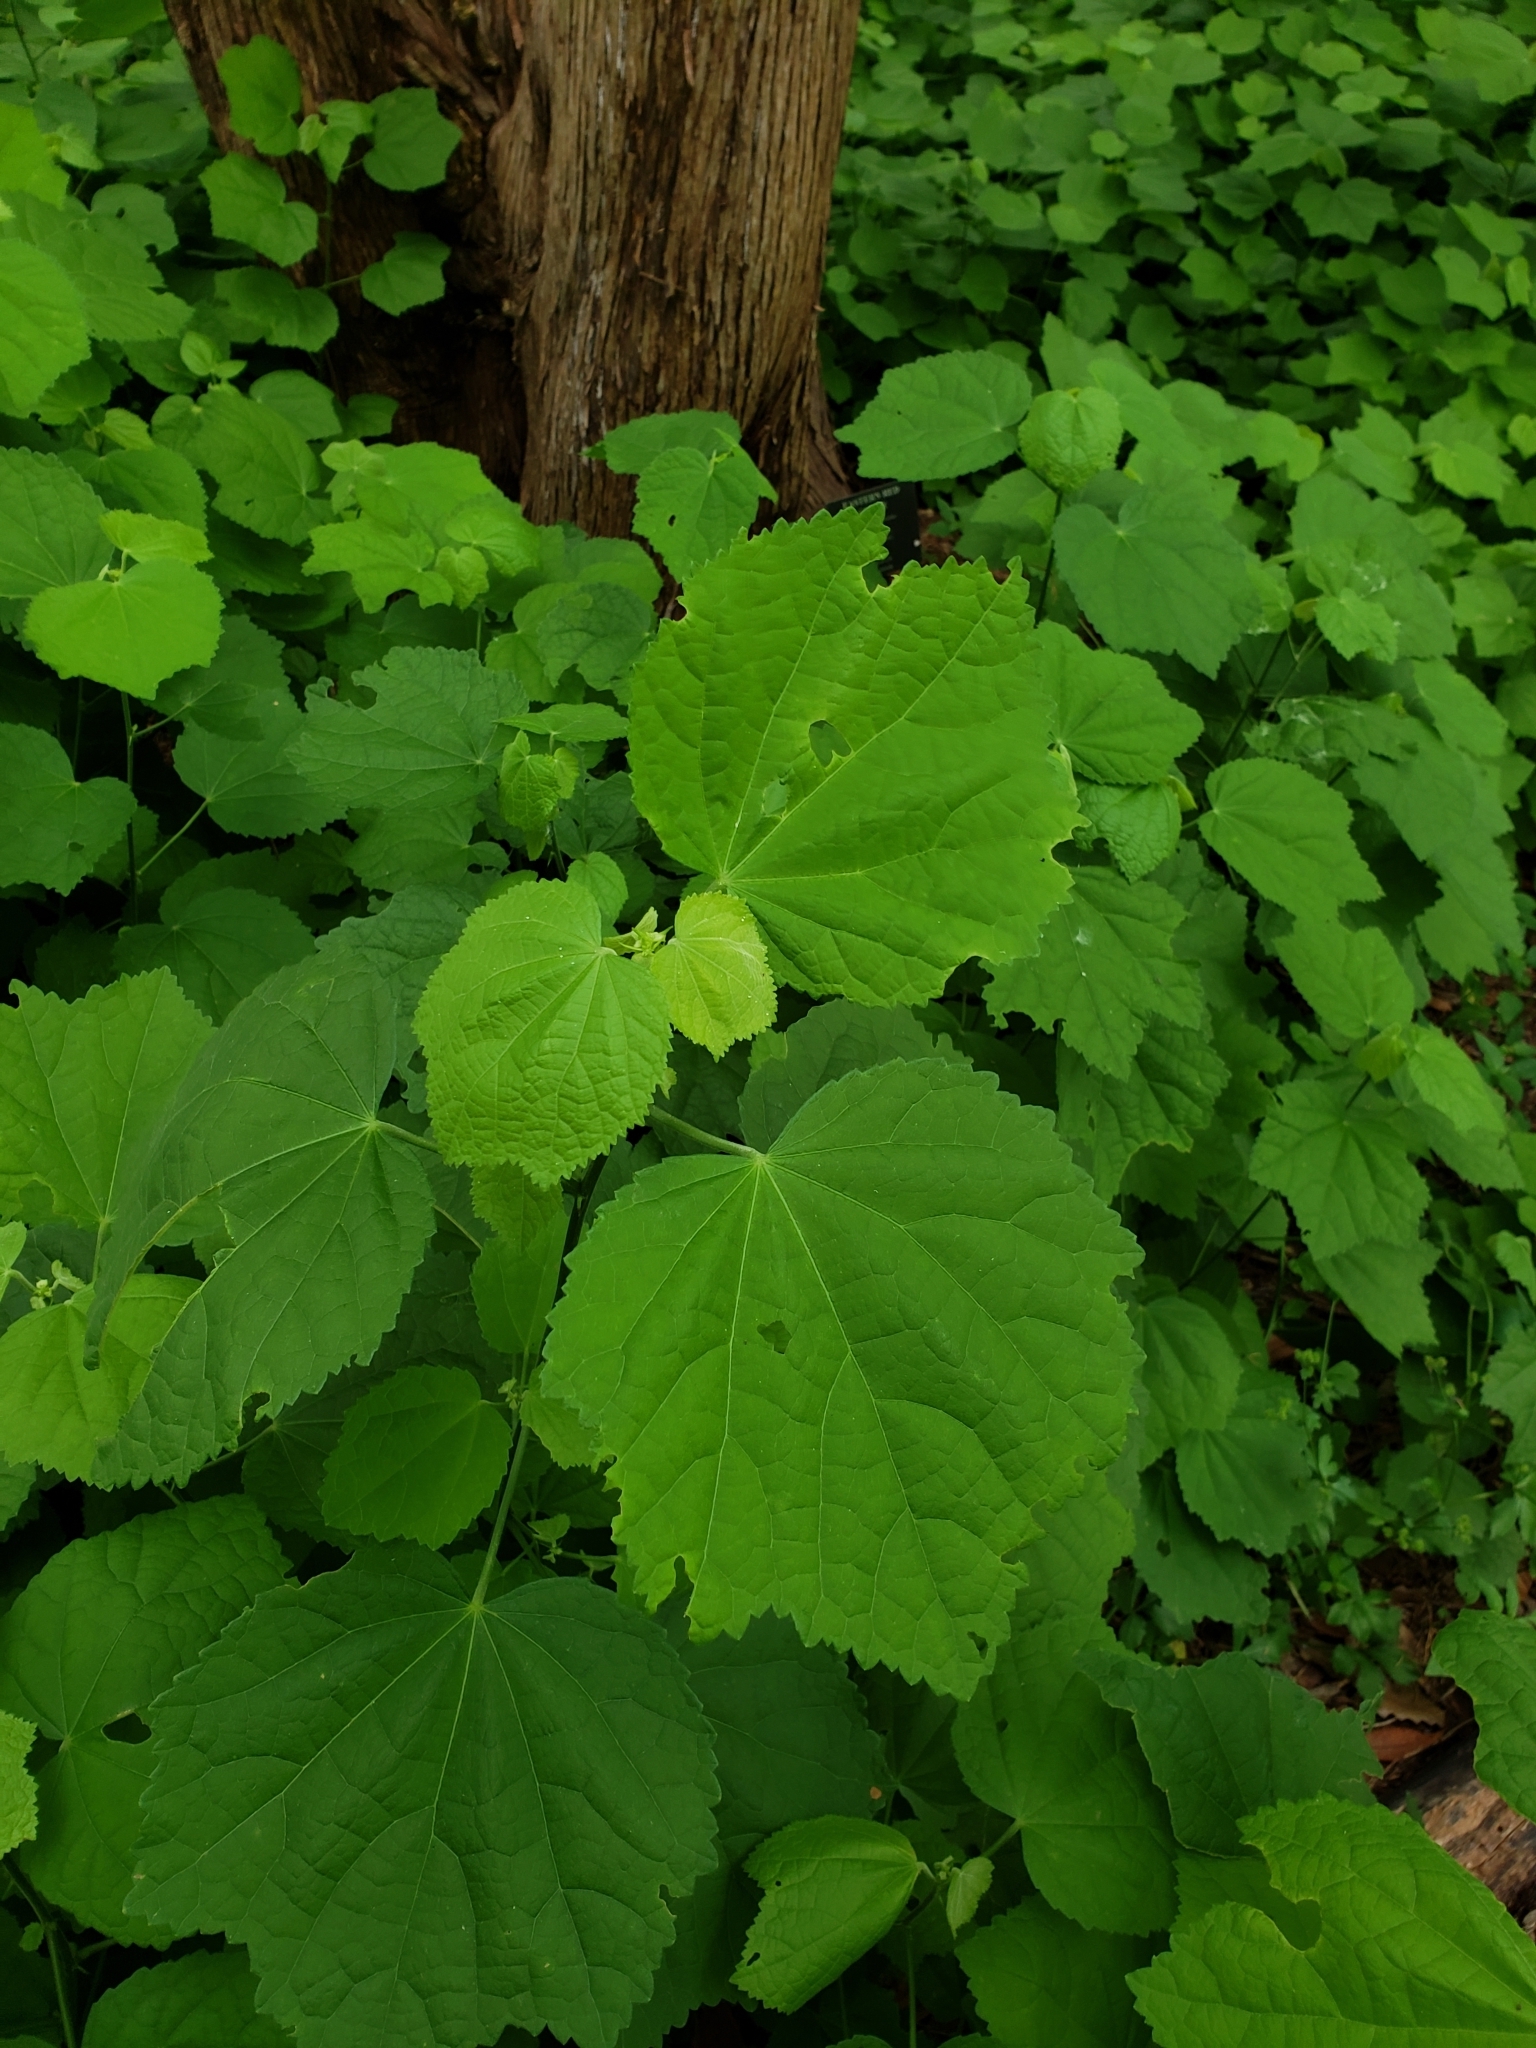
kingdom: Plantae
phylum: Tracheophyta
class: Magnoliopsida
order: Malvales
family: Malvaceae
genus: Malvaviscus
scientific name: Malvaviscus arboreus
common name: Wax mallow
